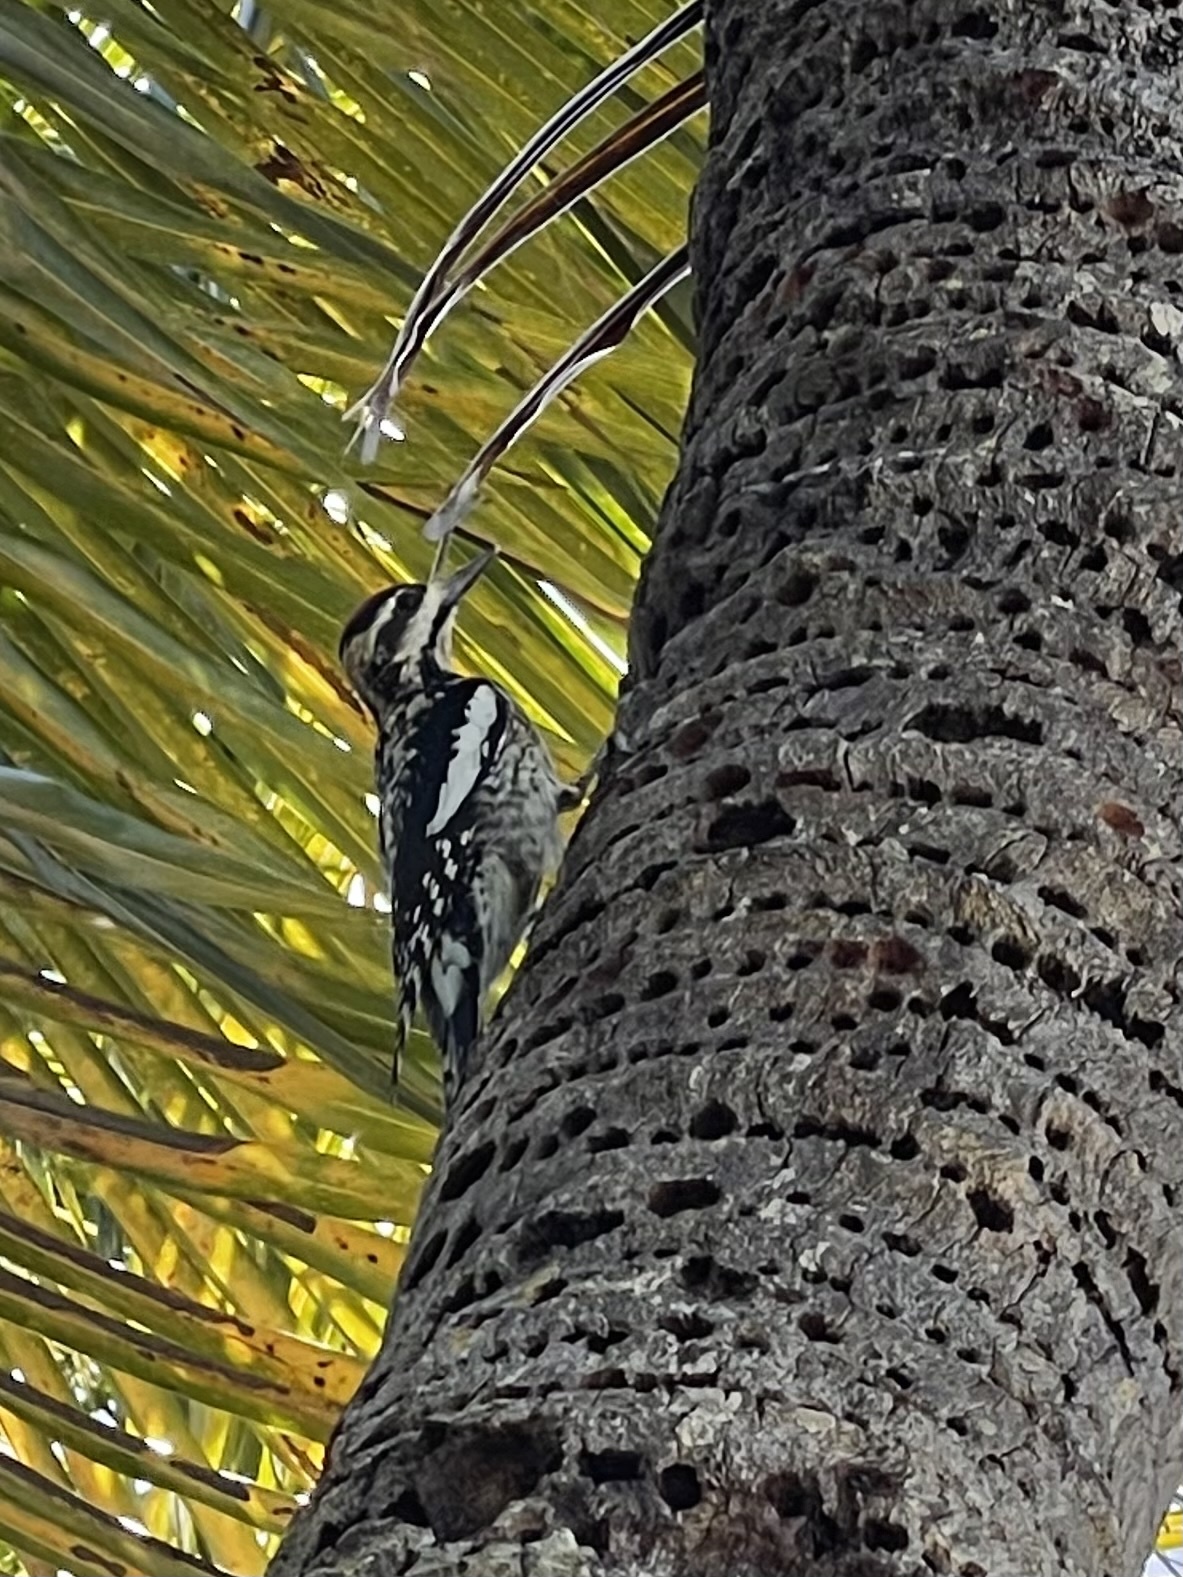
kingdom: Animalia
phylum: Chordata
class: Aves
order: Piciformes
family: Picidae
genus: Sphyrapicus
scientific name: Sphyrapicus varius
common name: Yellow-bellied sapsucker
